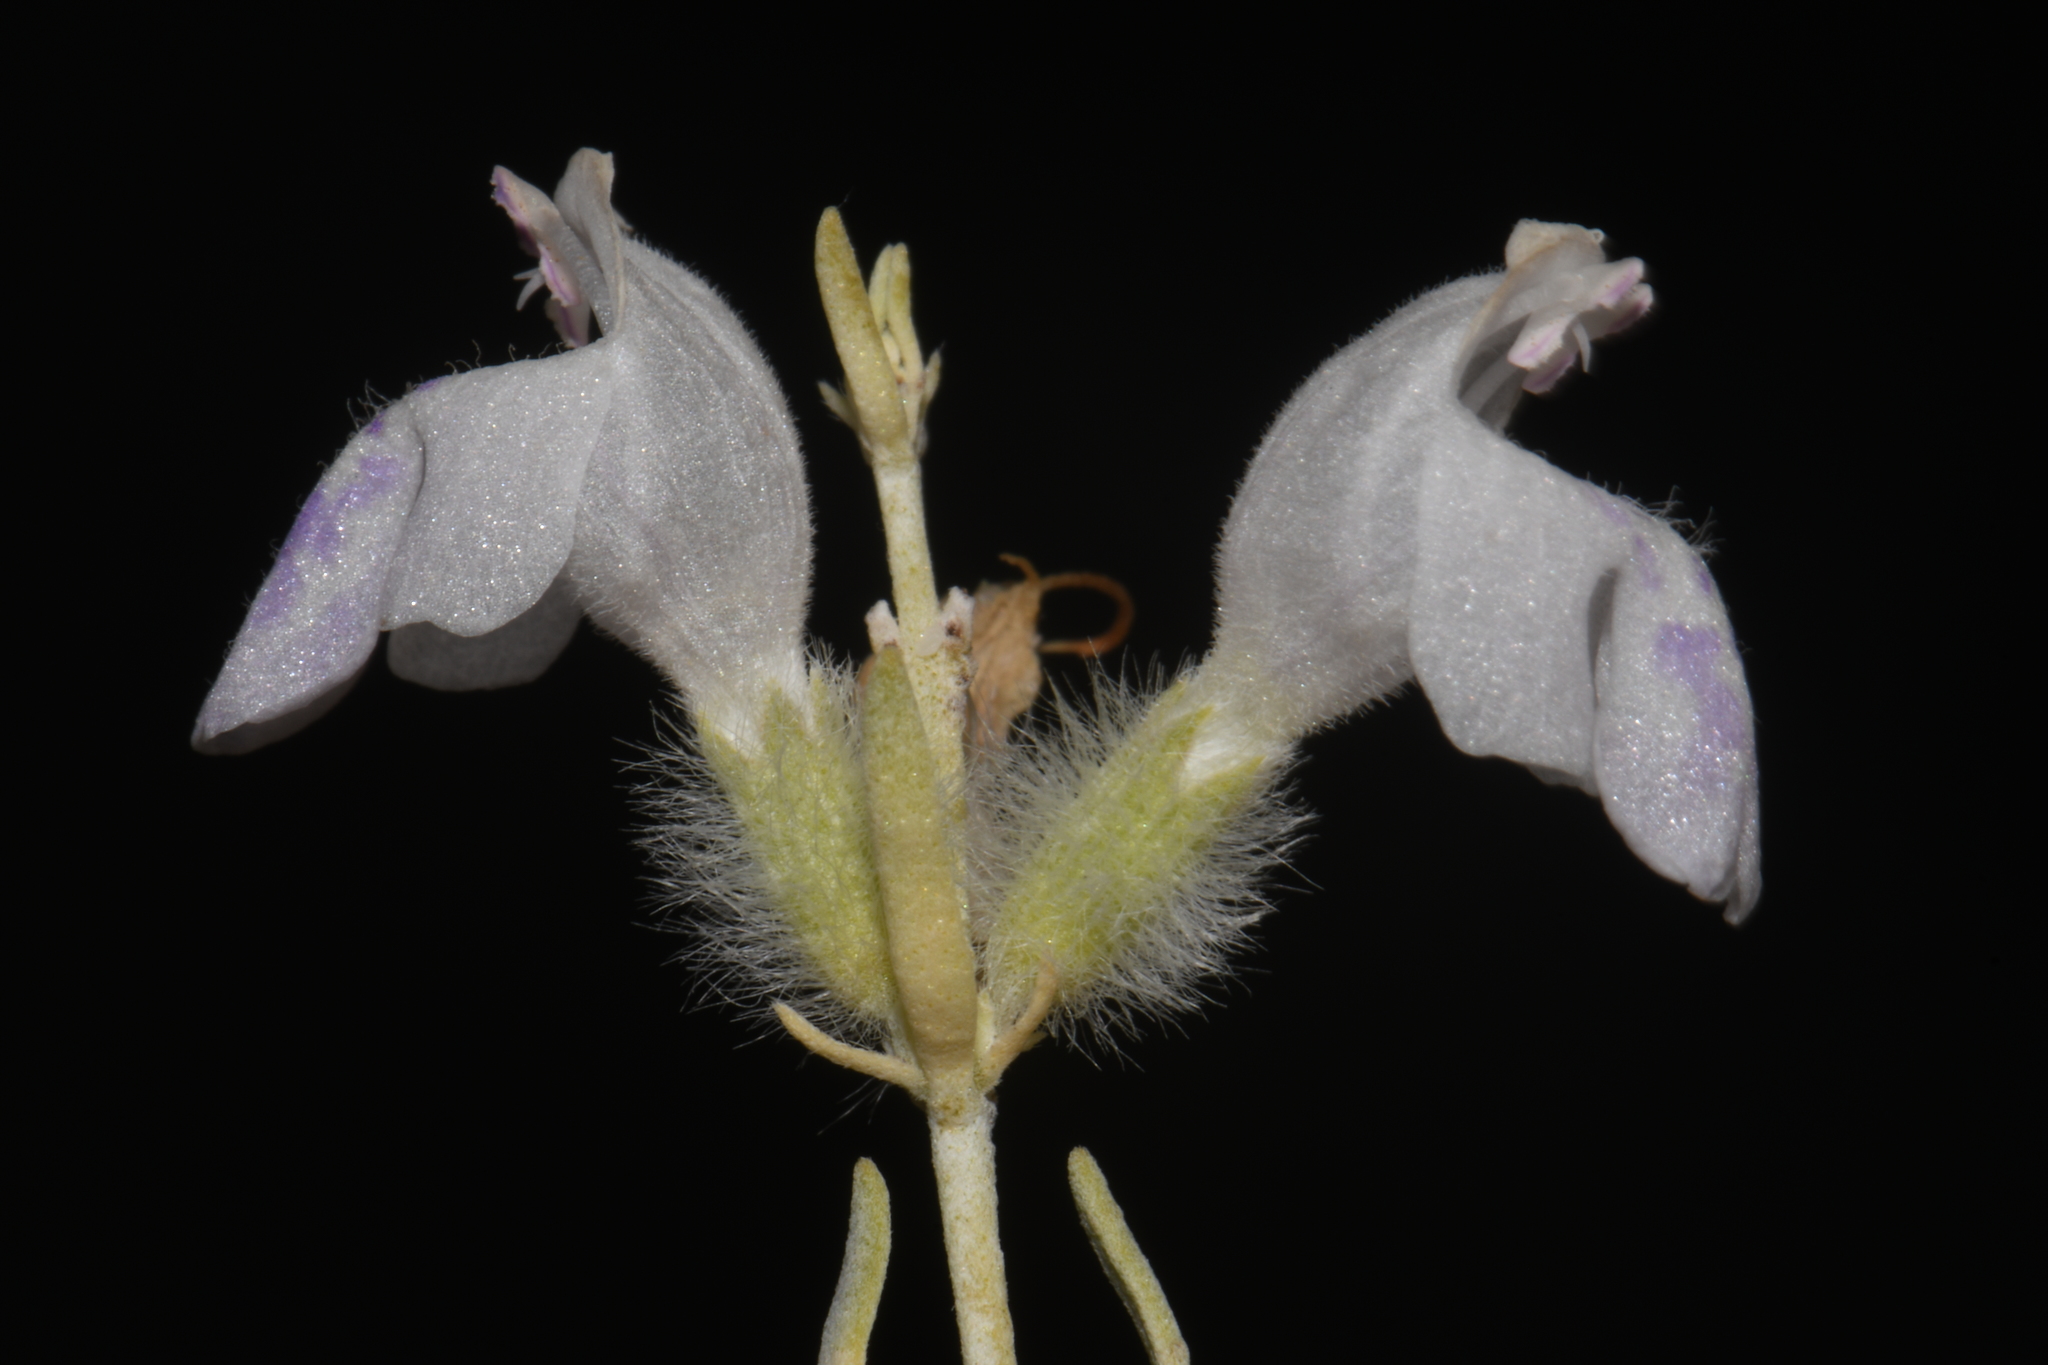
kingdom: Plantae
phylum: Tracheophyta
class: Magnoliopsida
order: Lamiales
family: Lamiaceae
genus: Poliomintha
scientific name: Poliomintha incana
